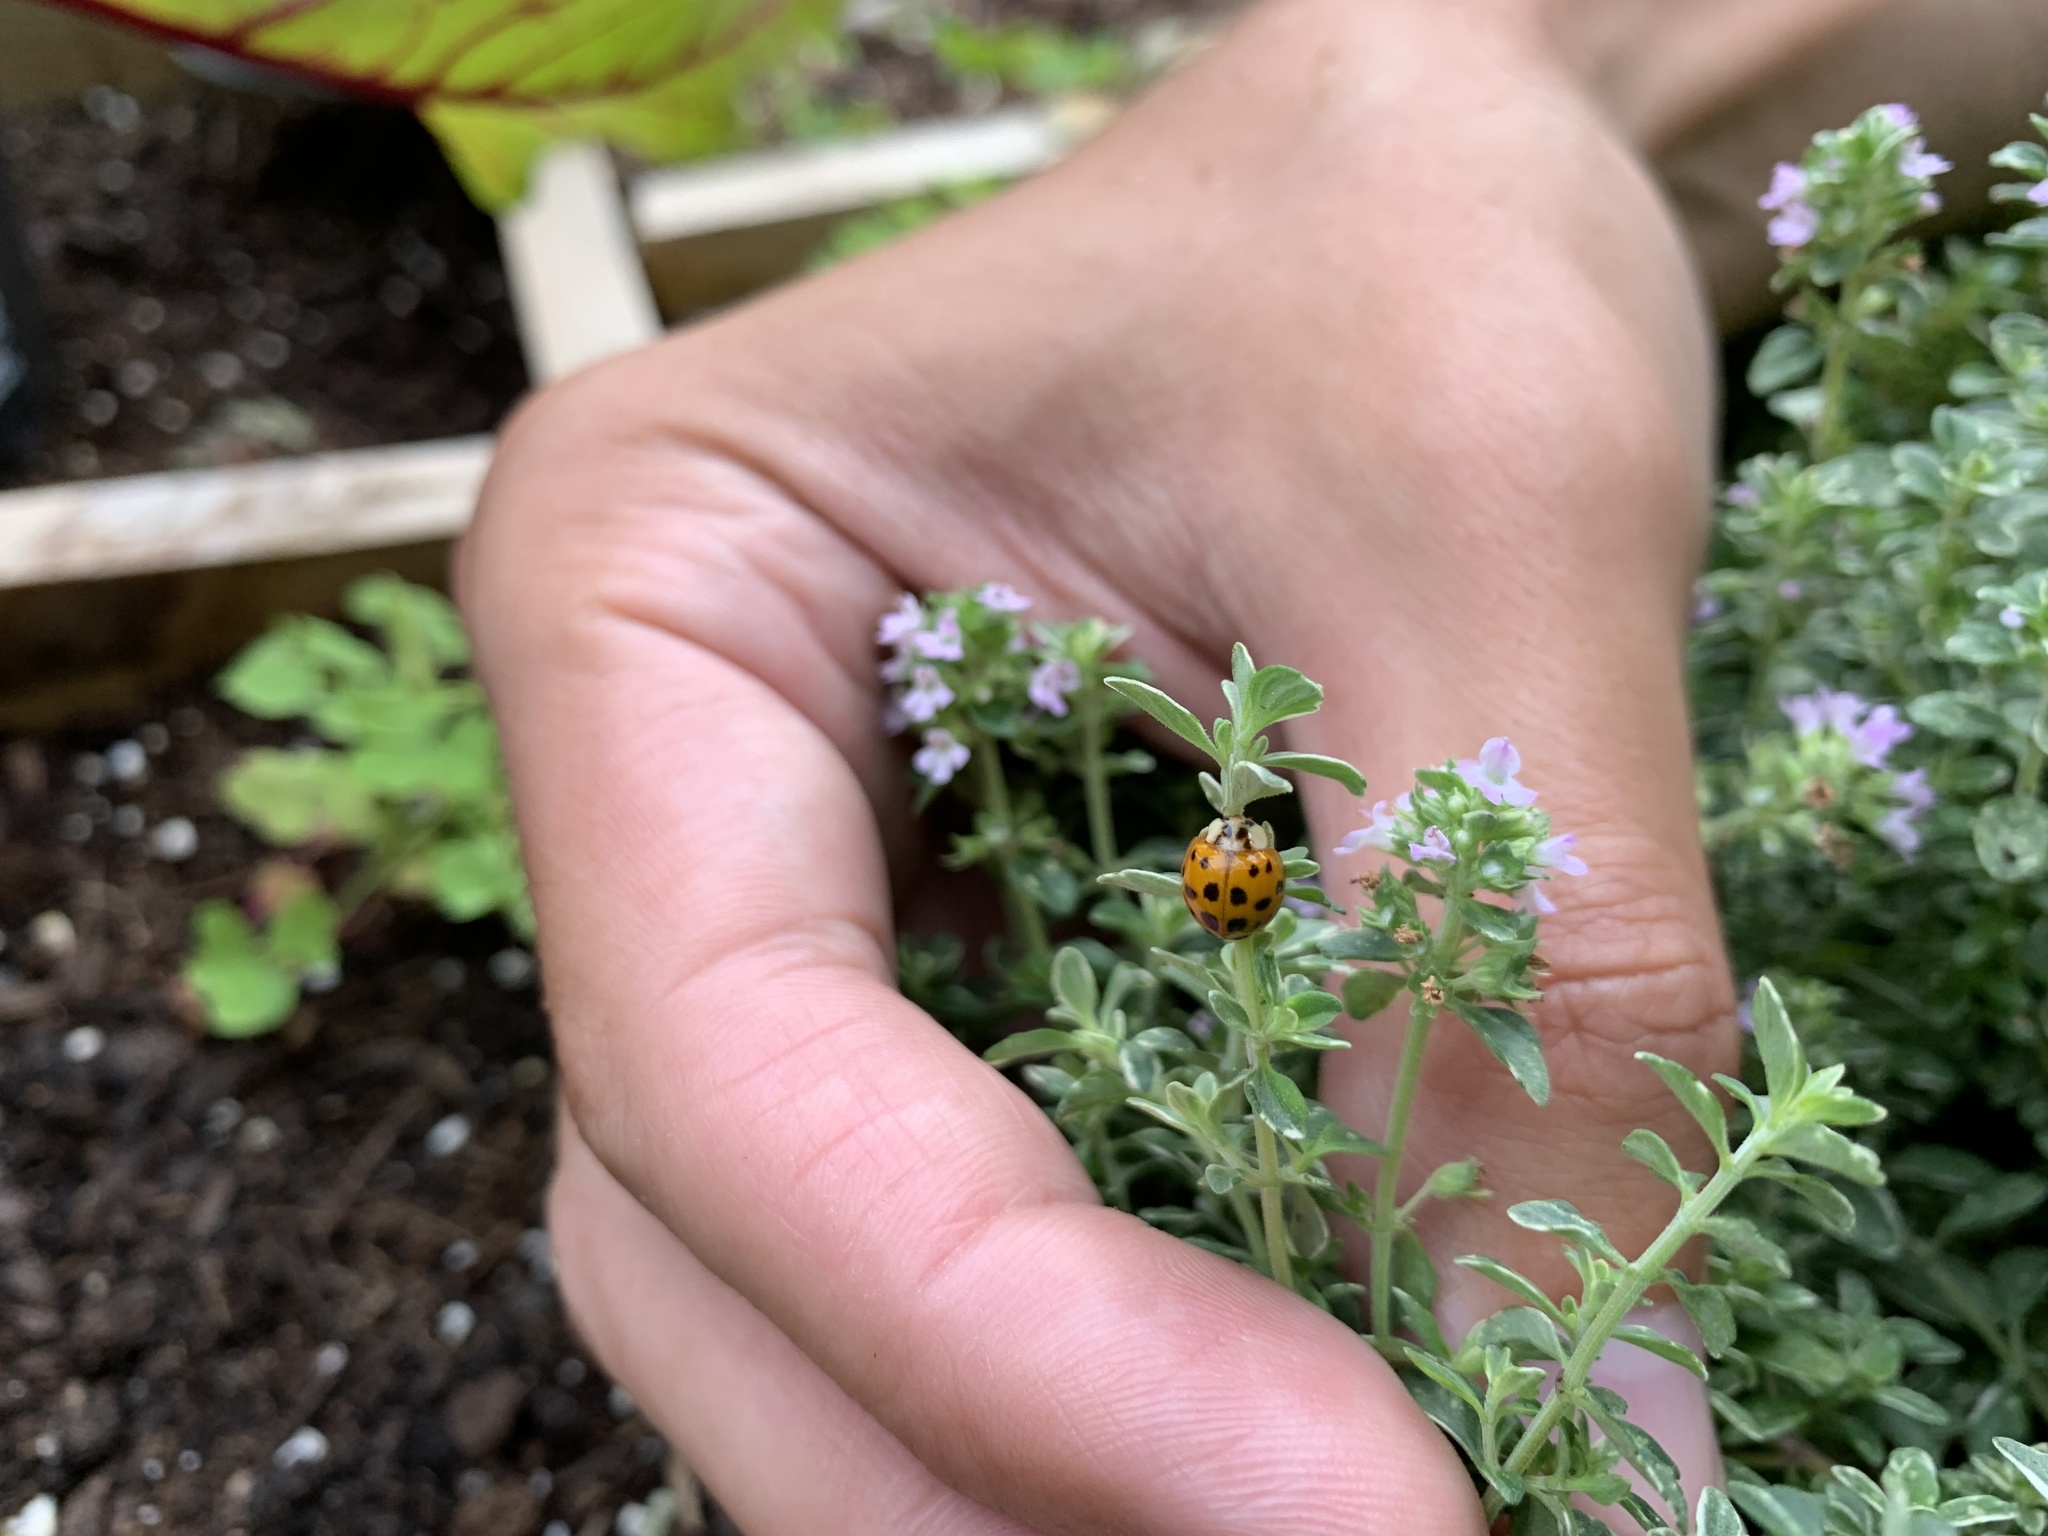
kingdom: Animalia
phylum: Arthropoda
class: Insecta
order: Coleoptera
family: Coccinellidae
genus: Harmonia
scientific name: Harmonia axyridis
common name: Harlequin ladybird
